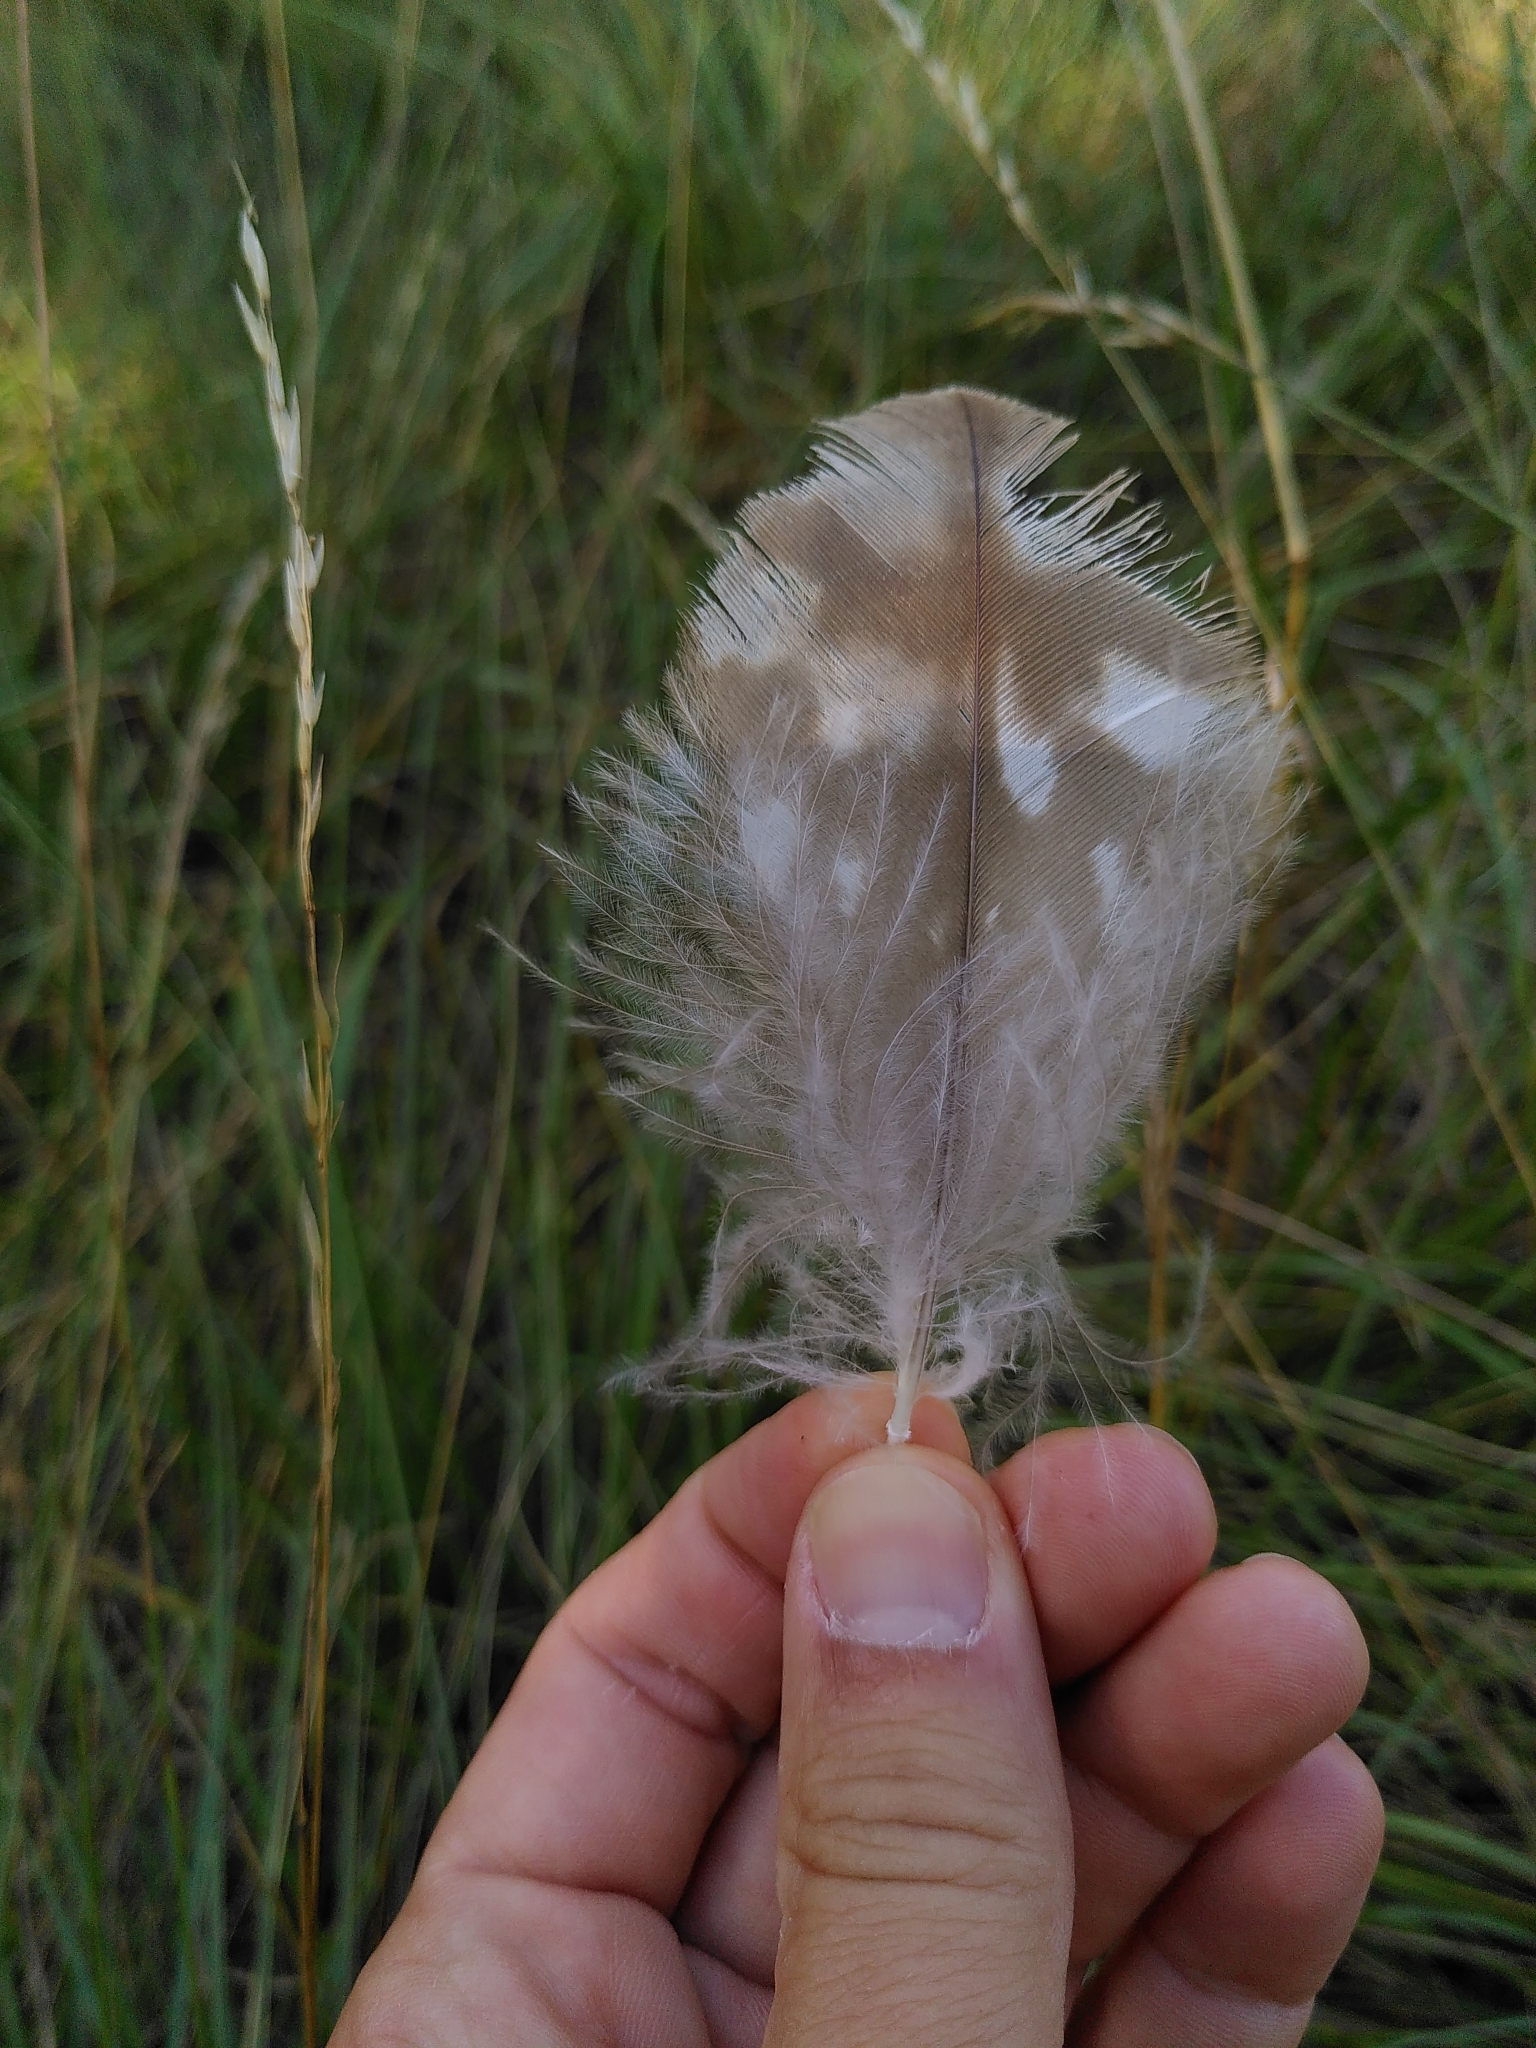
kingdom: Animalia
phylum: Chordata
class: Aves
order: Accipitriformes
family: Accipitridae
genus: Buteo
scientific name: Buteo buteo
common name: Common buzzard
